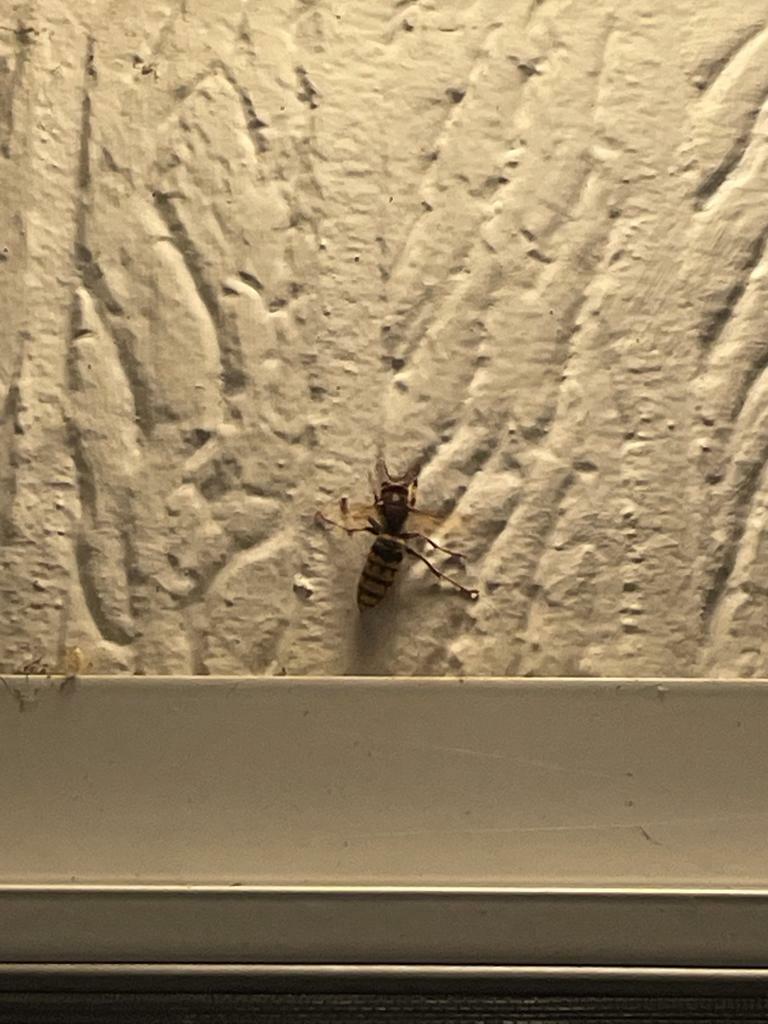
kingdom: Animalia
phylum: Arthropoda
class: Insecta
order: Hymenoptera
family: Vespidae
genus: Vespa
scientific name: Vespa crabro
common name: Hornet
